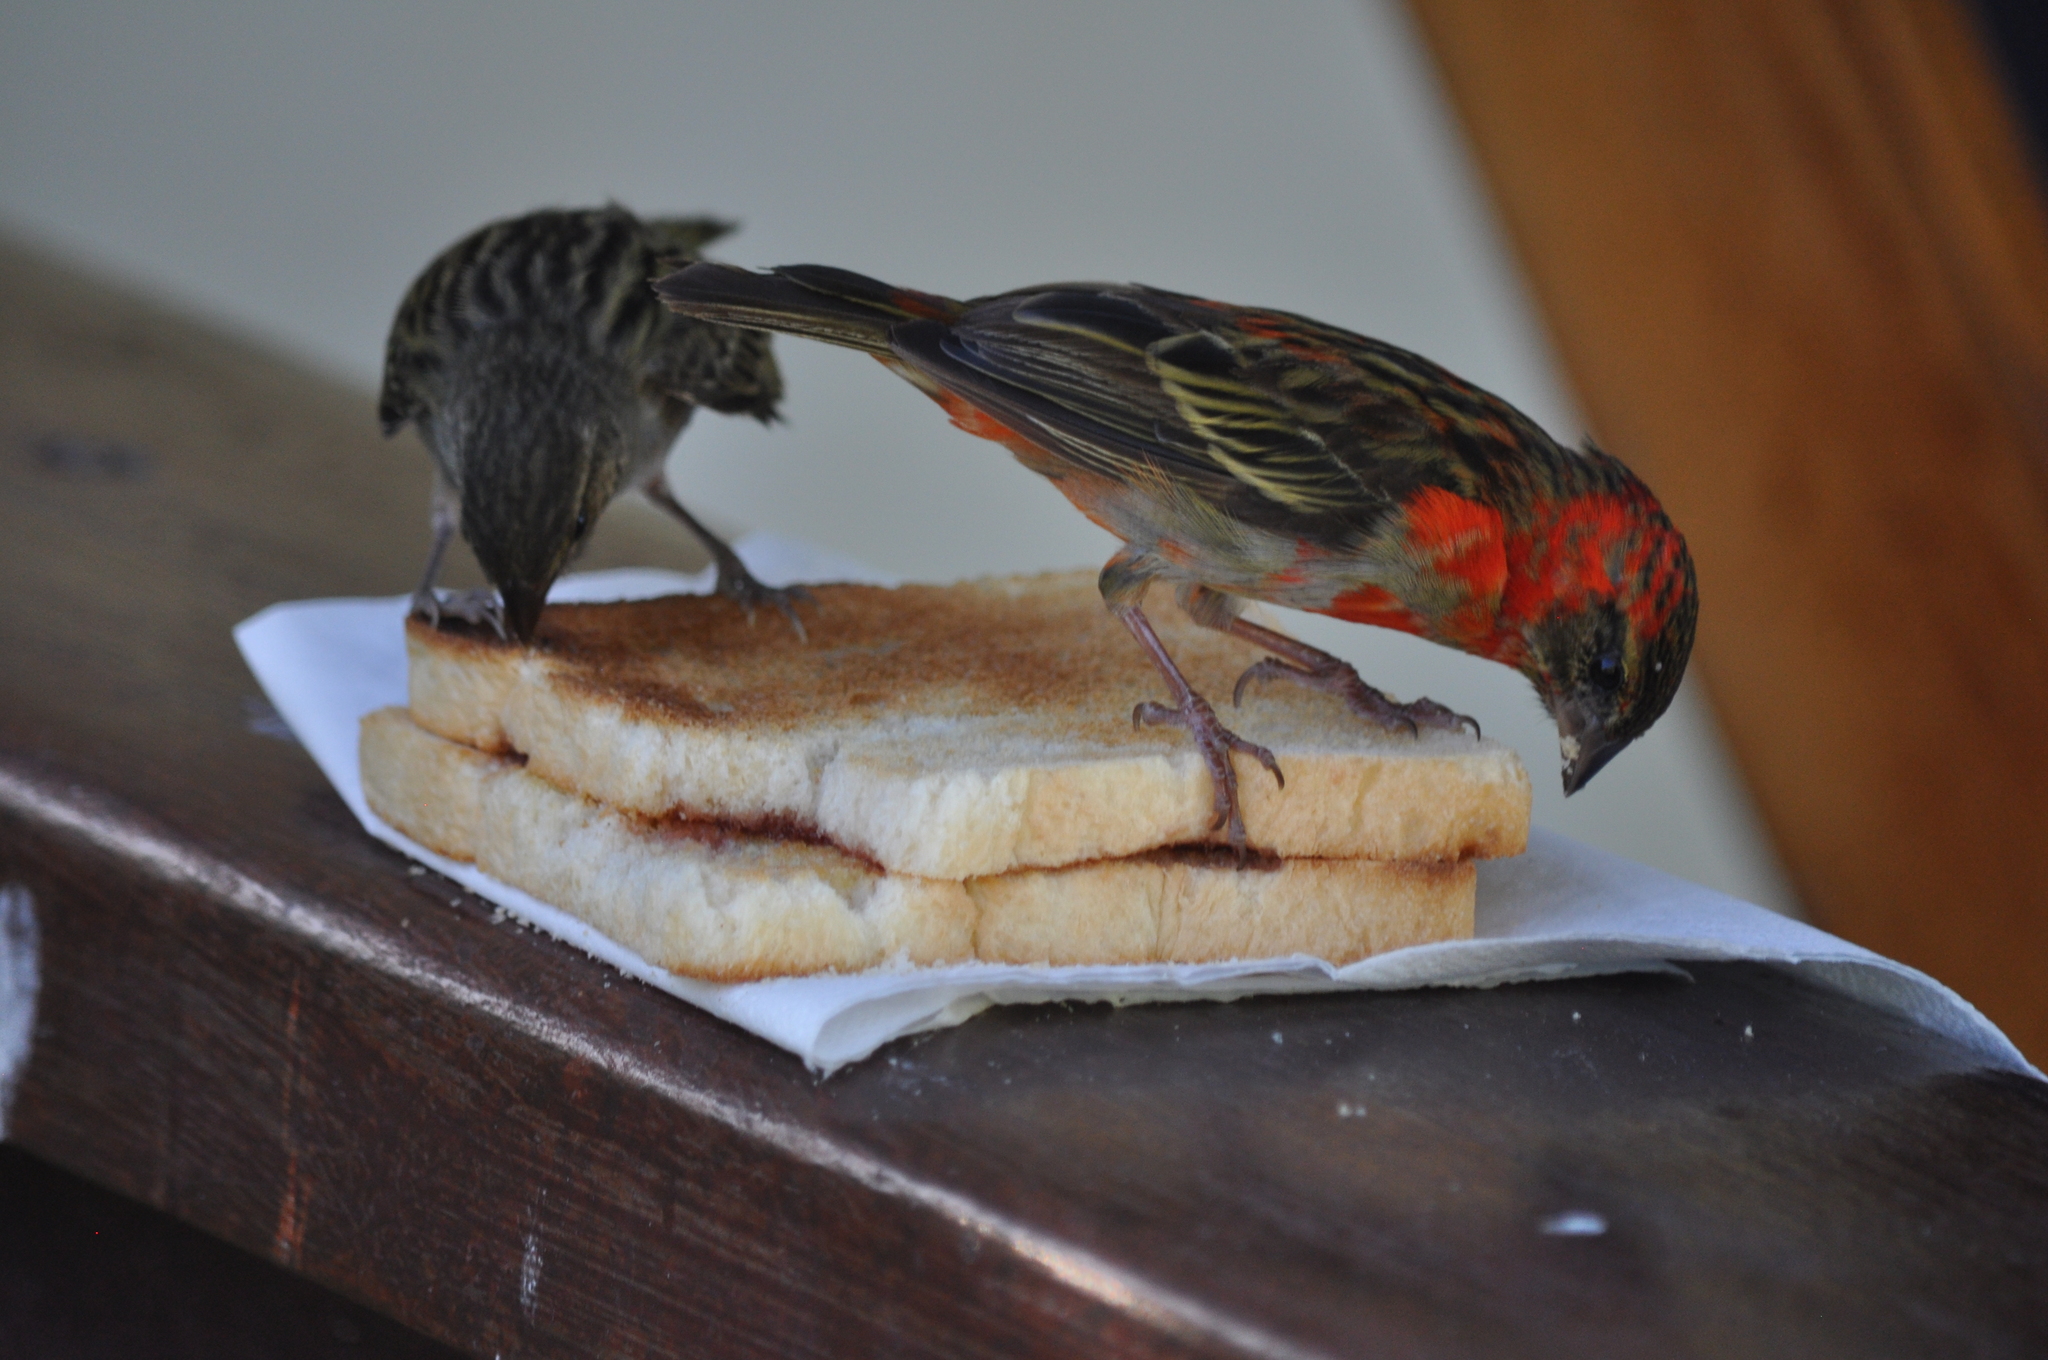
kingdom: Animalia
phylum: Chordata
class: Aves
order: Passeriformes
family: Ploceidae
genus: Foudia
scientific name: Foudia madagascariensis
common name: Red fody
